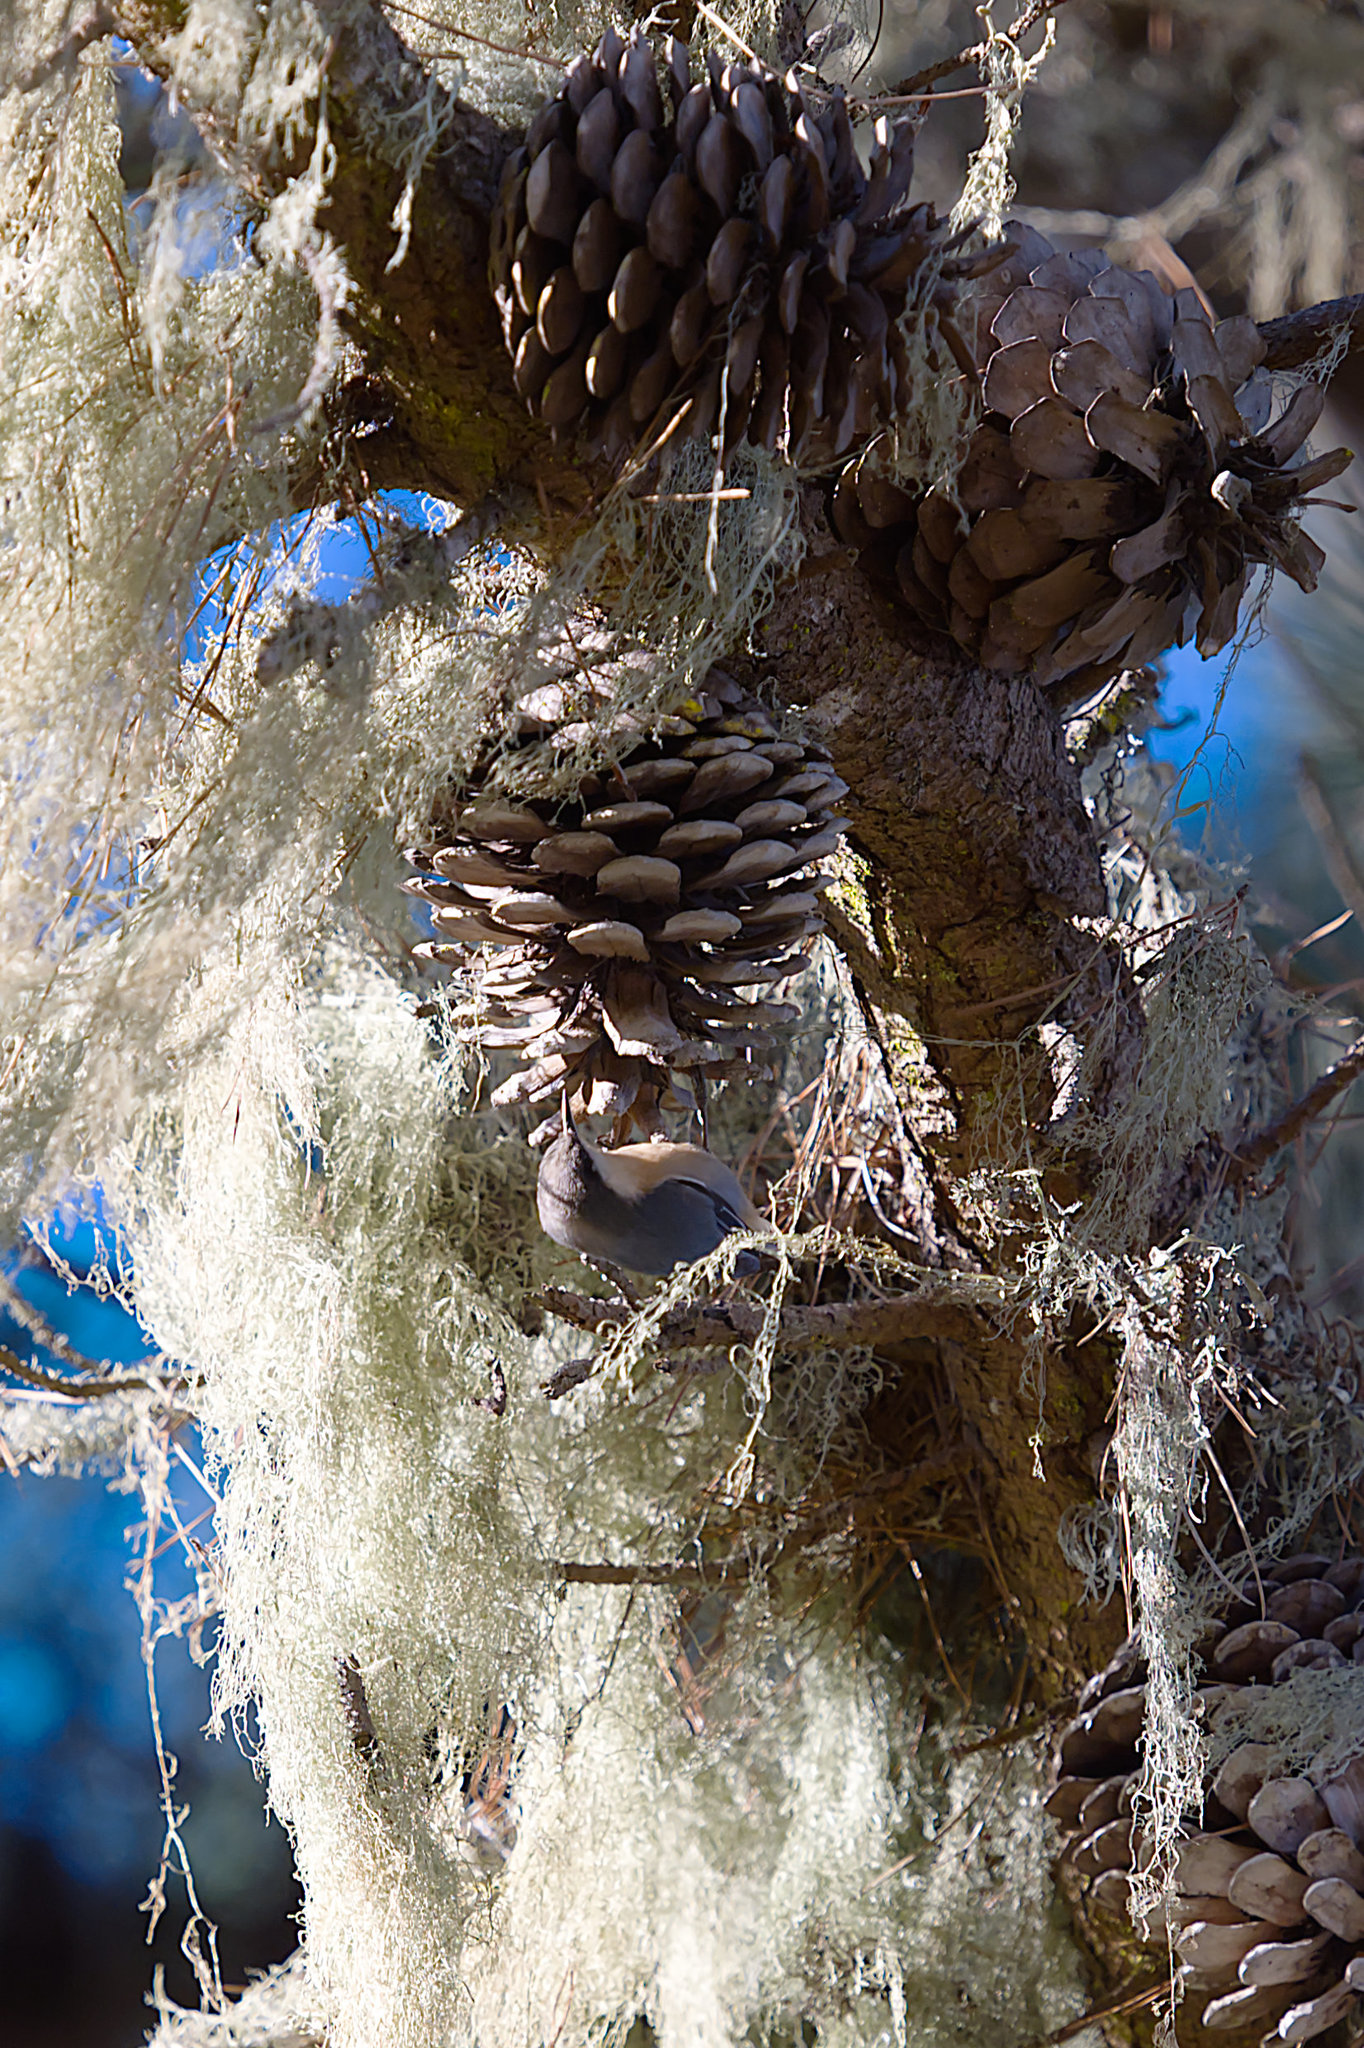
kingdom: Animalia
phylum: Chordata
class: Aves
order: Passeriformes
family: Sittidae
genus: Sitta
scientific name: Sitta pygmaea
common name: Pygmy nuthatch
